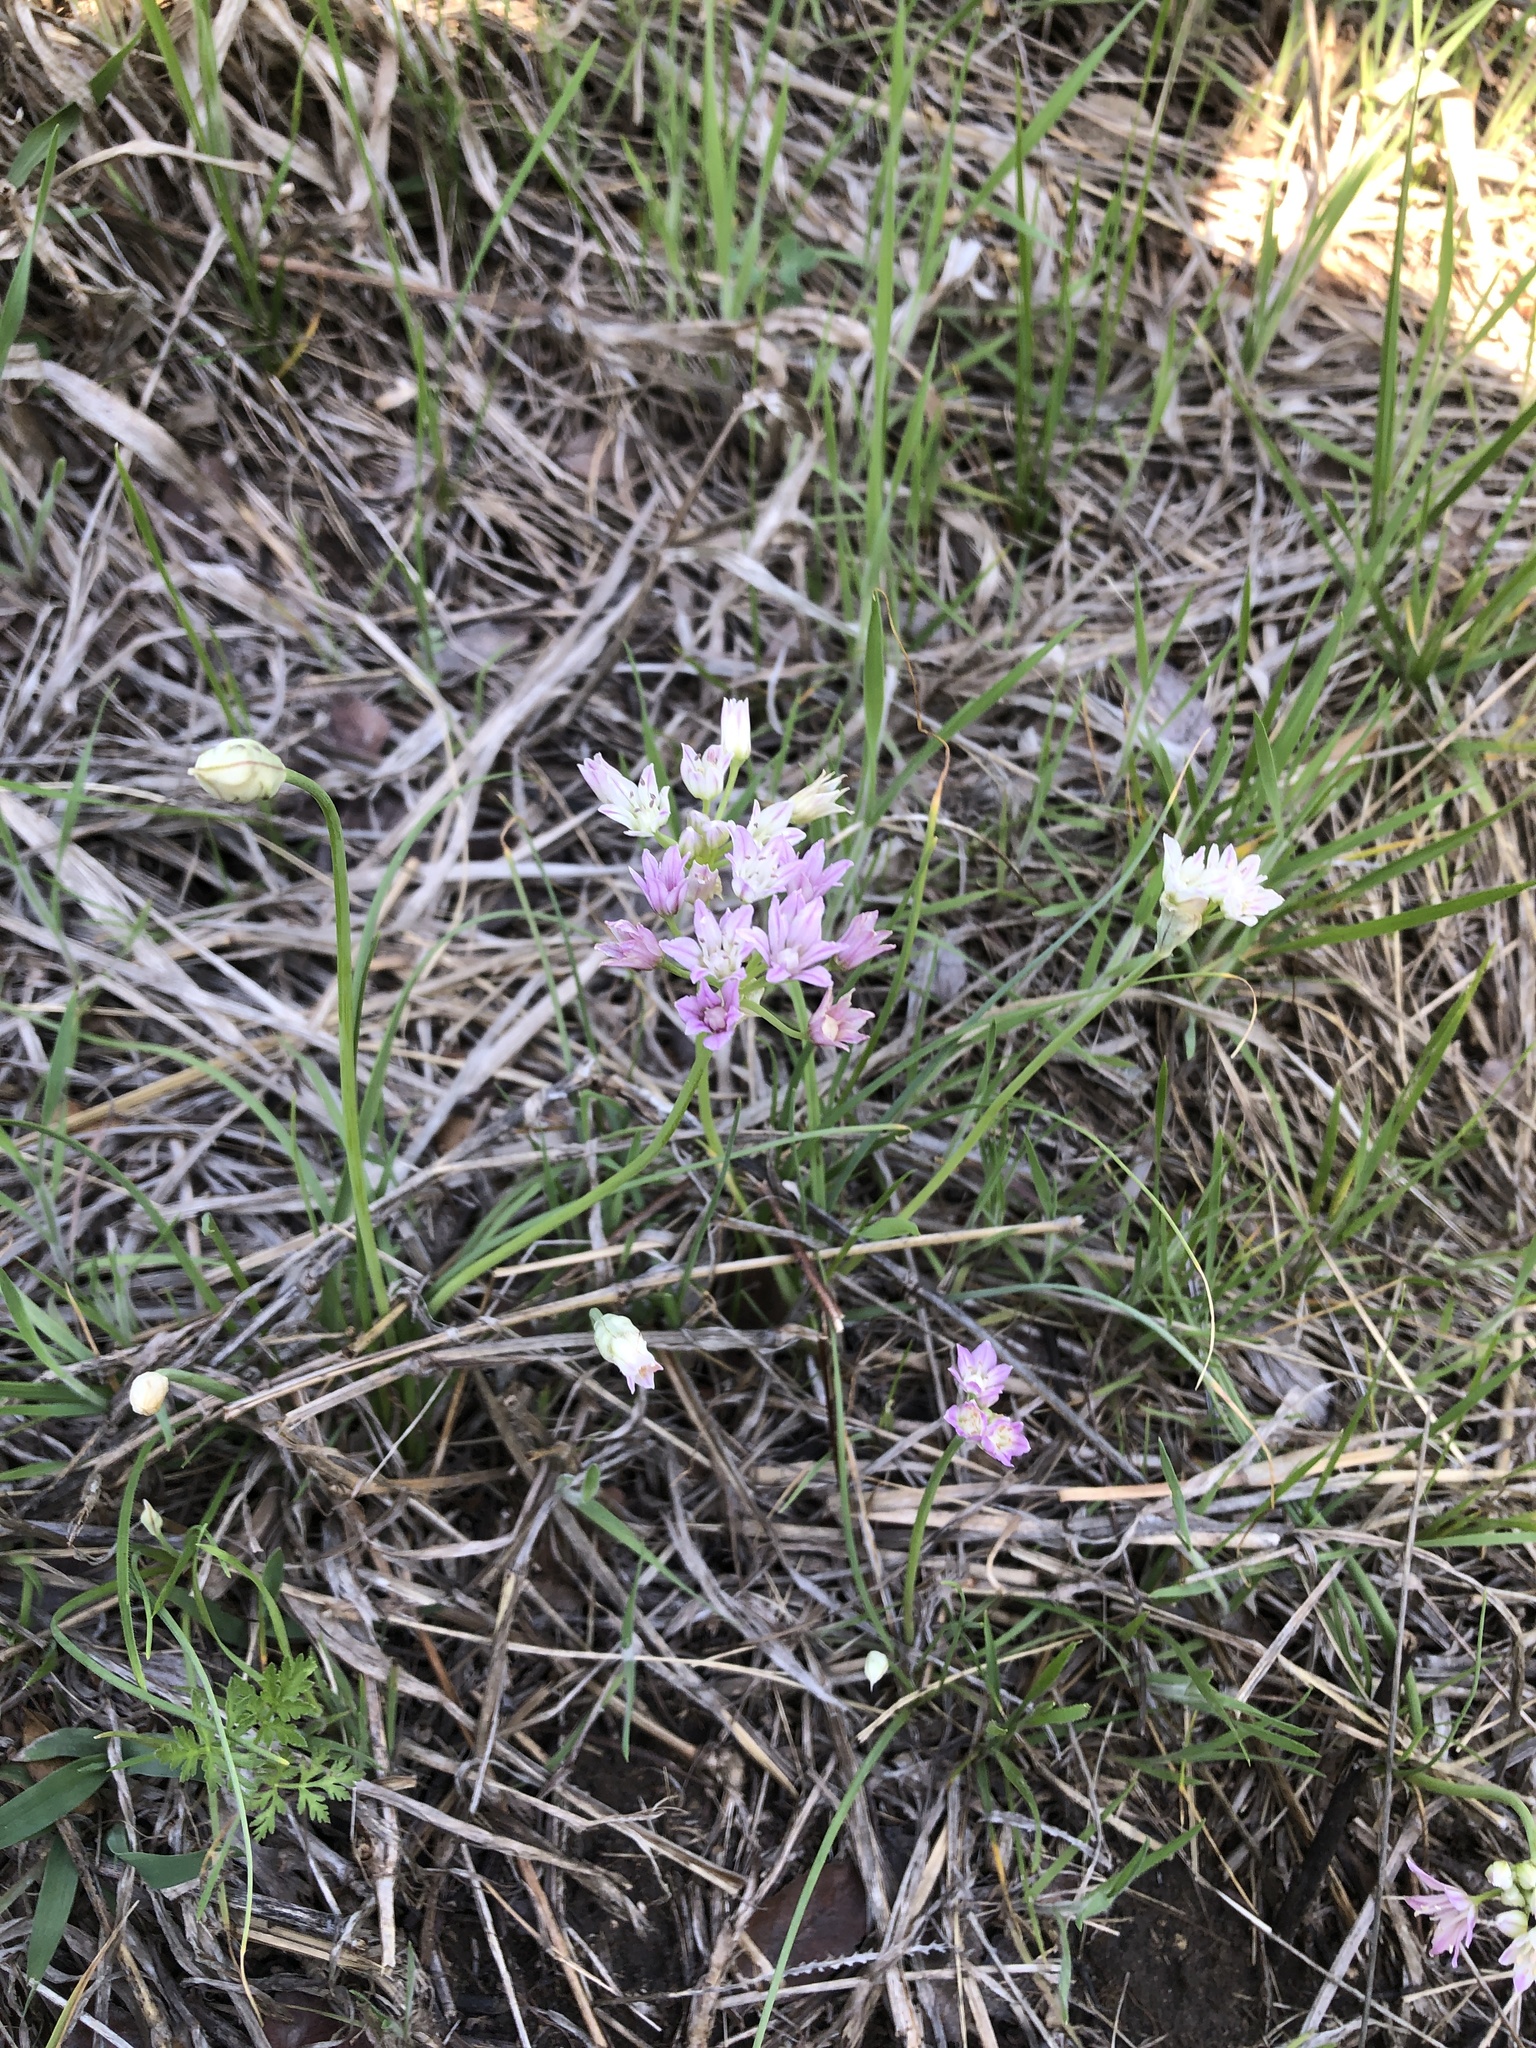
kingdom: Plantae
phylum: Tracheophyta
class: Liliopsida
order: Asparagales
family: Amaryllidaceae
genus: Allium
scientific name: Allium drummondii
